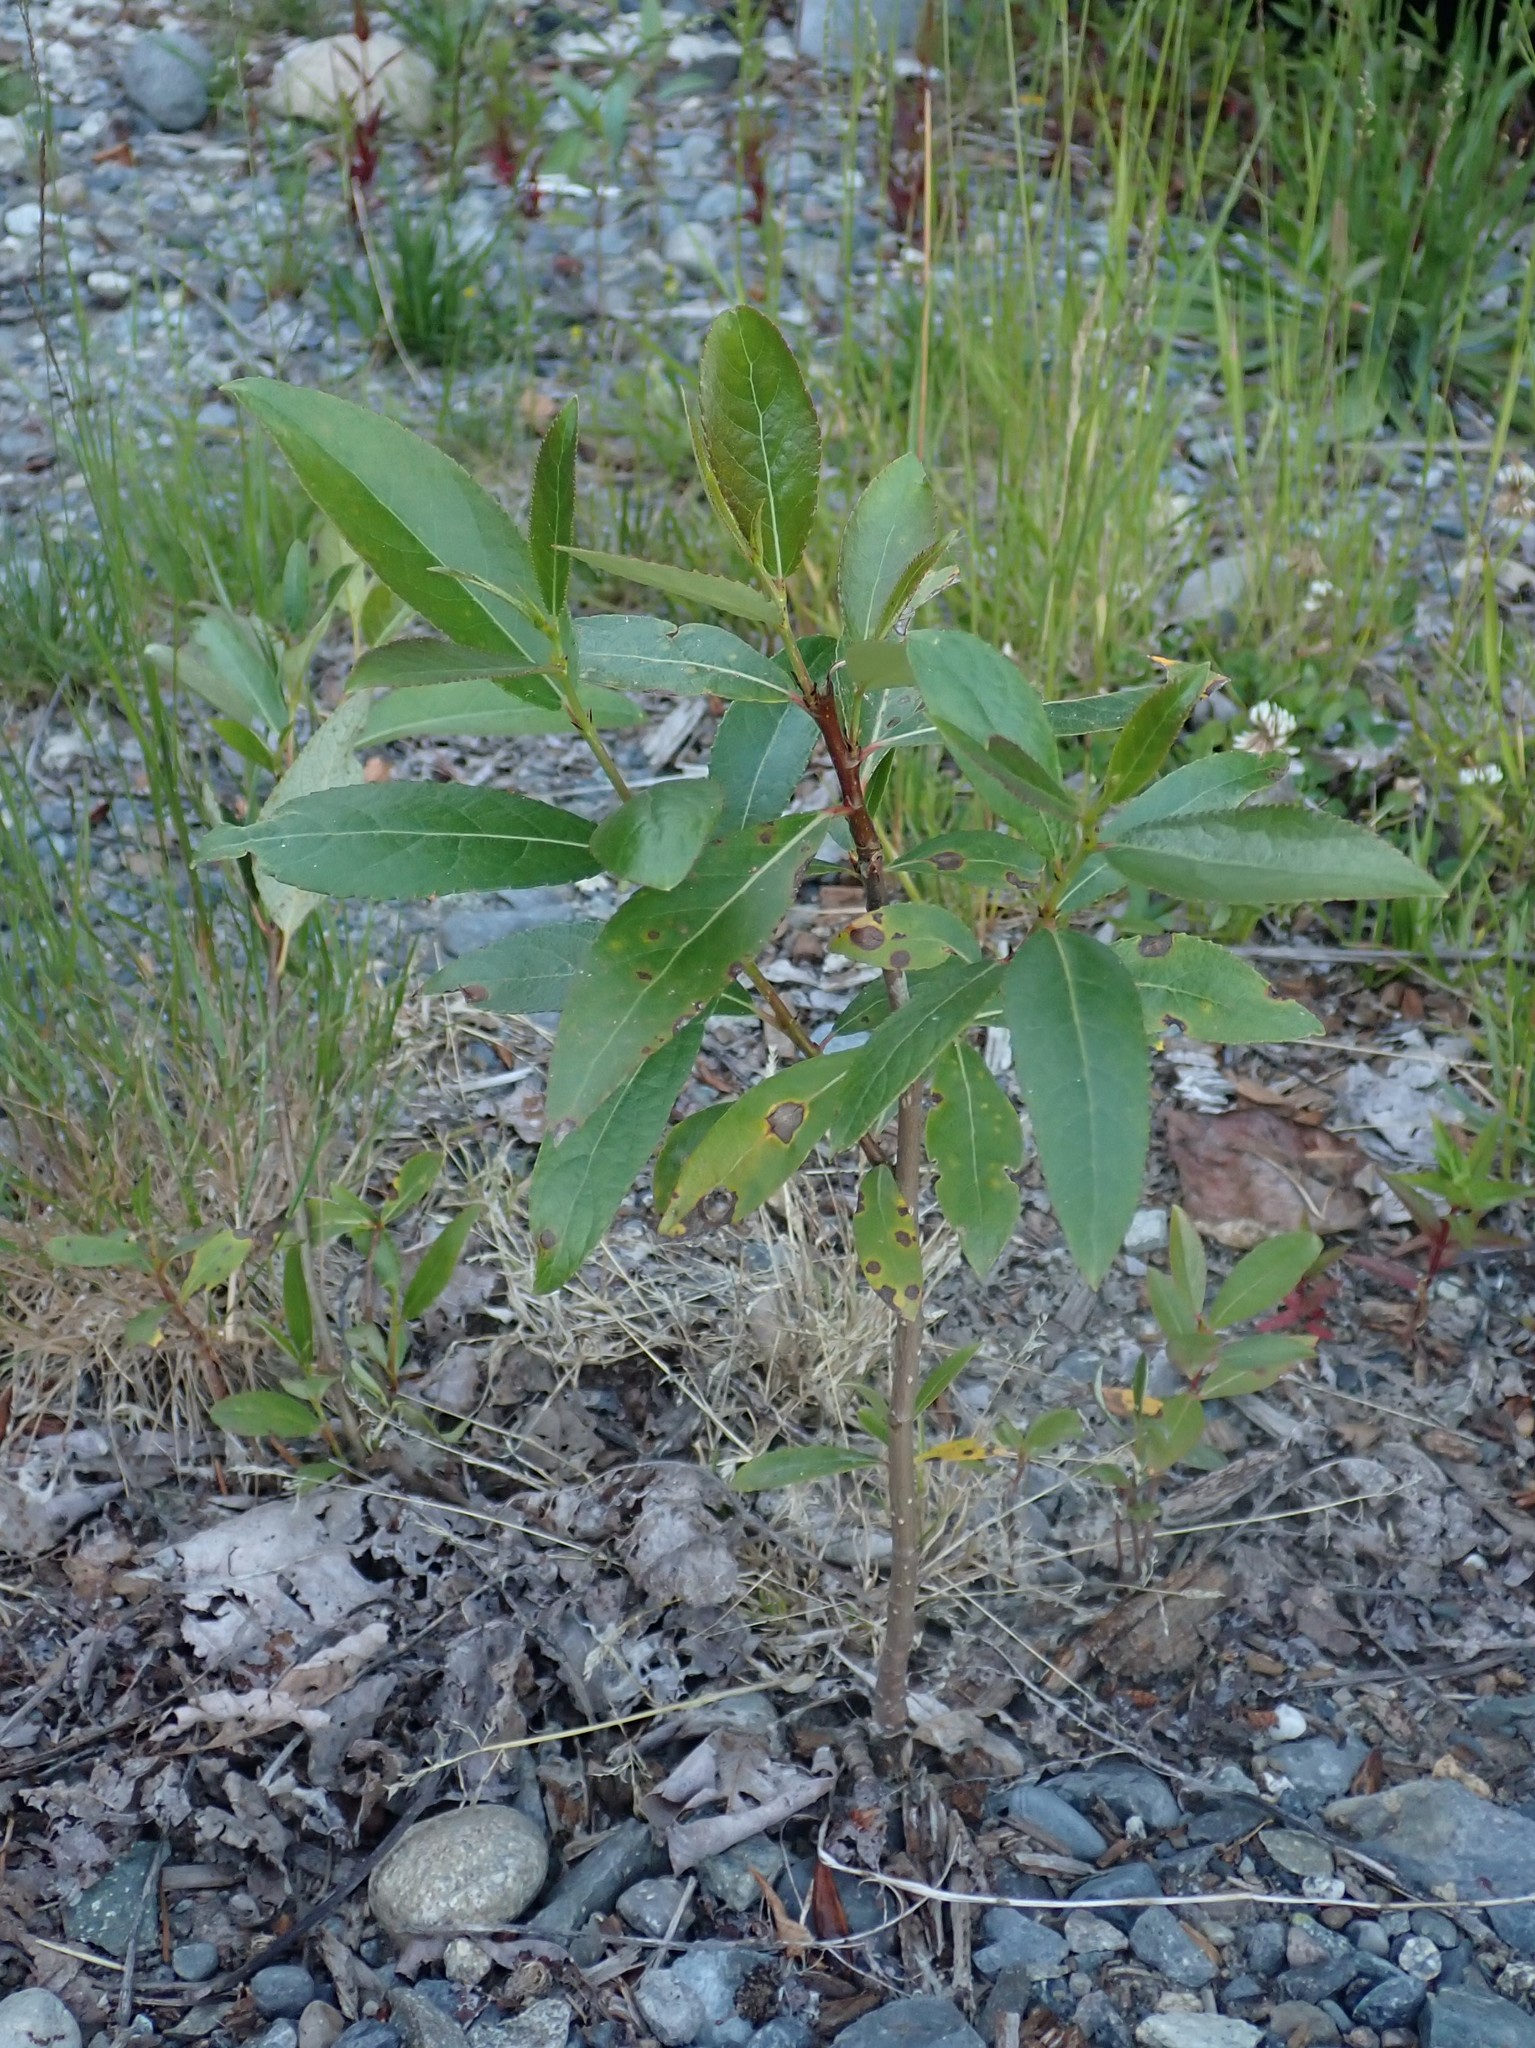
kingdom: Plantae
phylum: Tracheophyta
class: Magnoliopsida
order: Malpighiales
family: Salicaceae
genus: Populus
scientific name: Populus trichocarpa
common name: Black cottonwood
